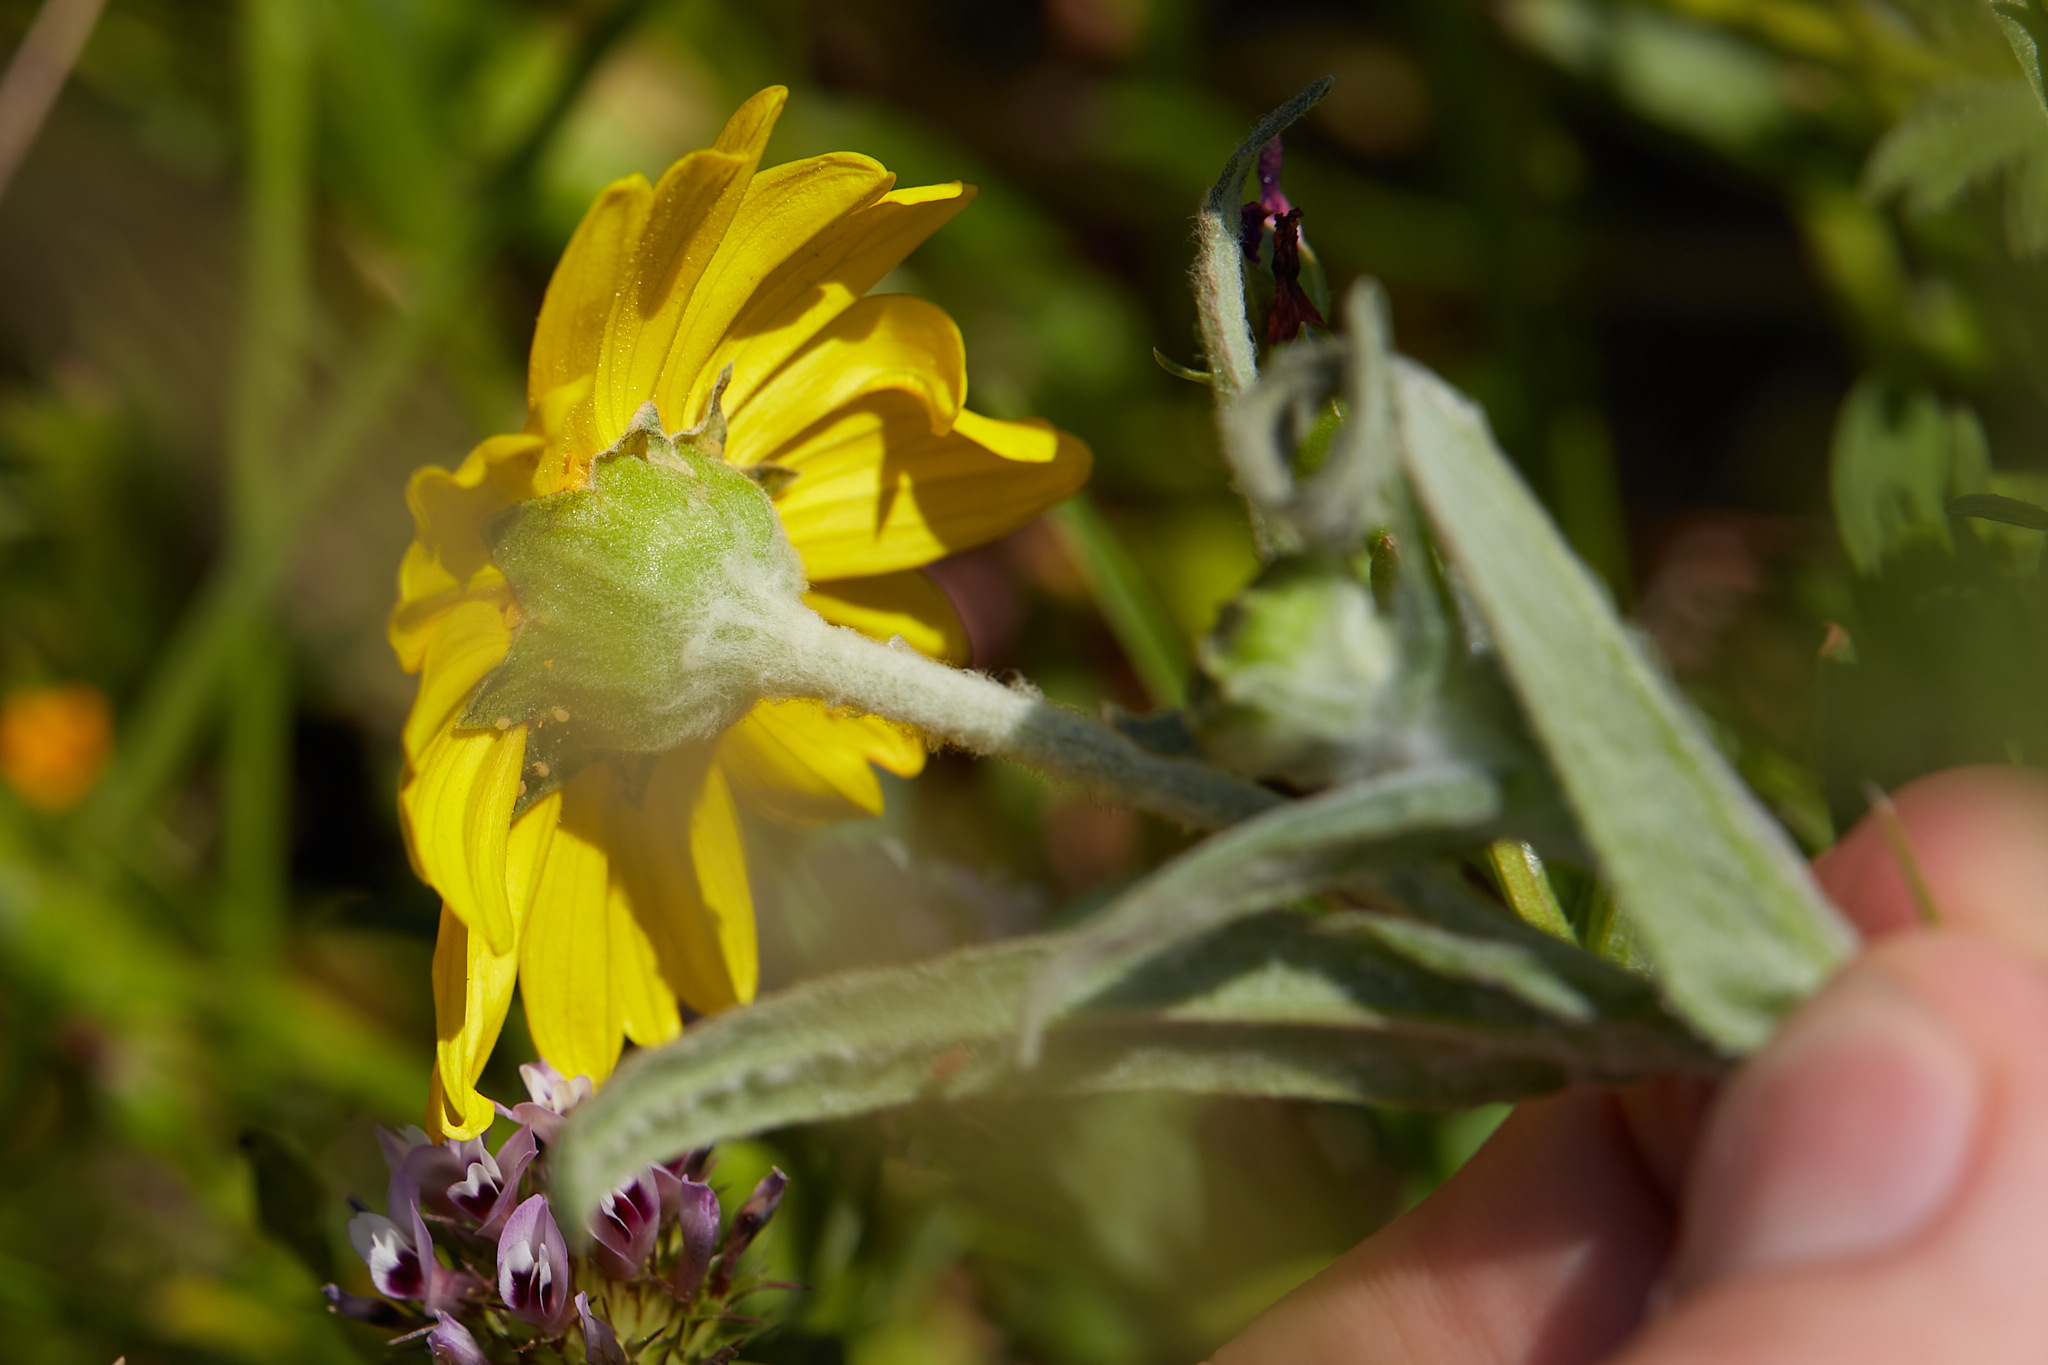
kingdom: Plantae
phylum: Tracheophyta
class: Magnoliopsida
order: Asterales
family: Asteraceae
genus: Monolopia
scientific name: Monolopia major
